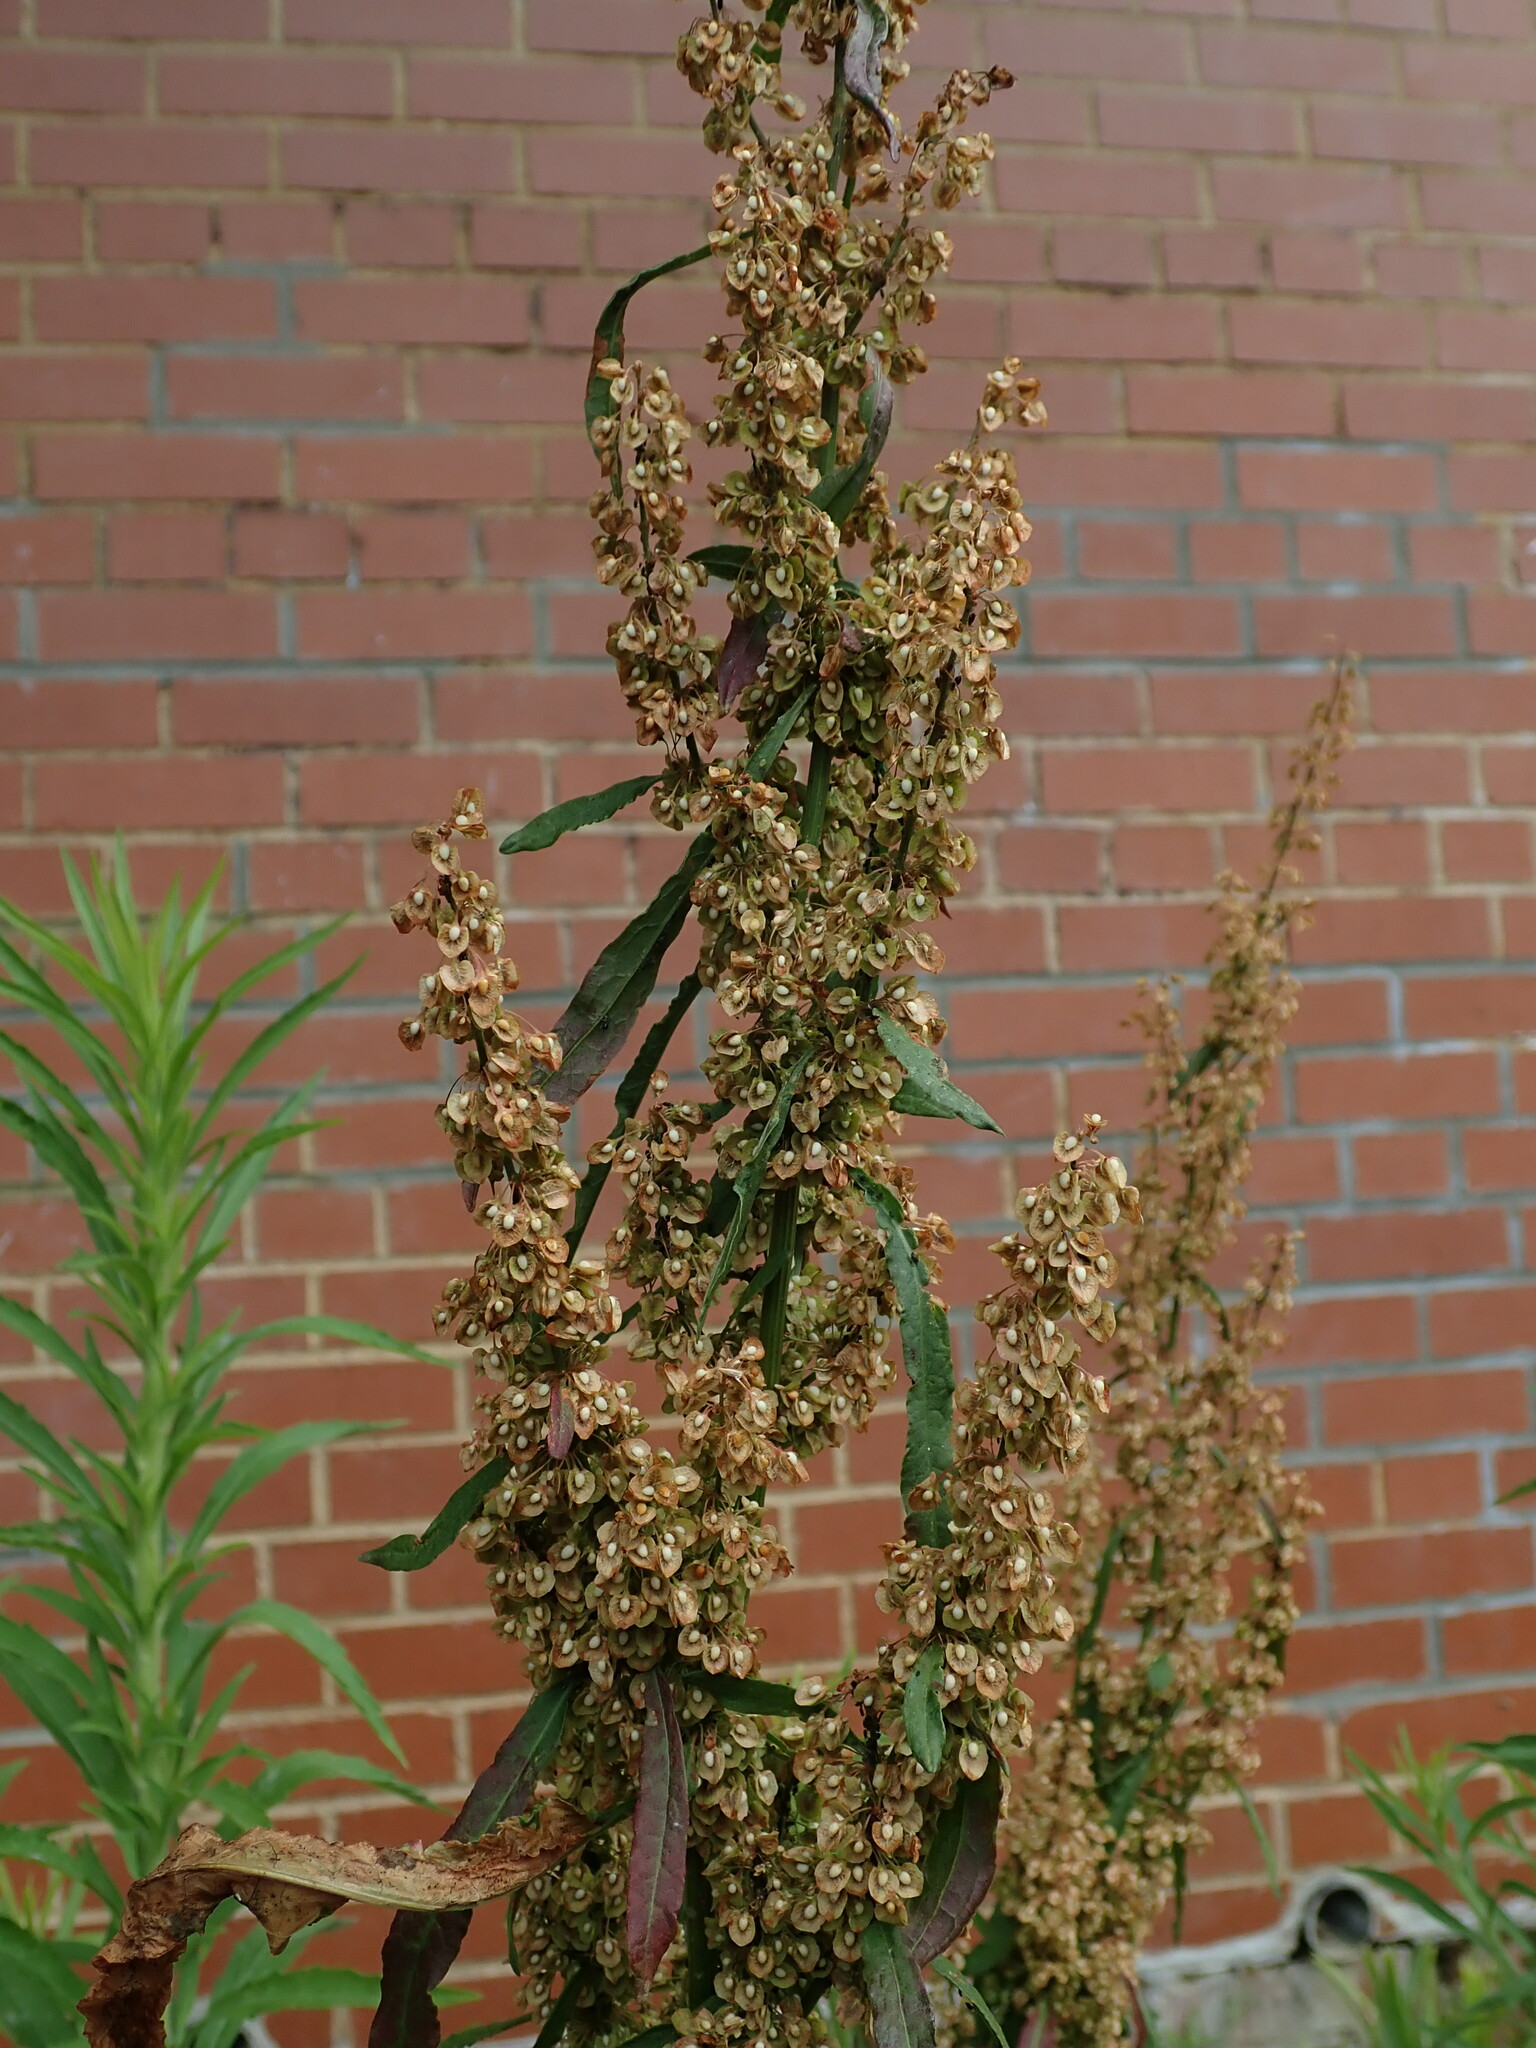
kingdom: Plantae
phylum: Tracheophyta
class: Magnoliopsida
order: Caryophyllales
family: Polygonaceae
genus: Rumex
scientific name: Rumex crispus
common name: Curled dock
